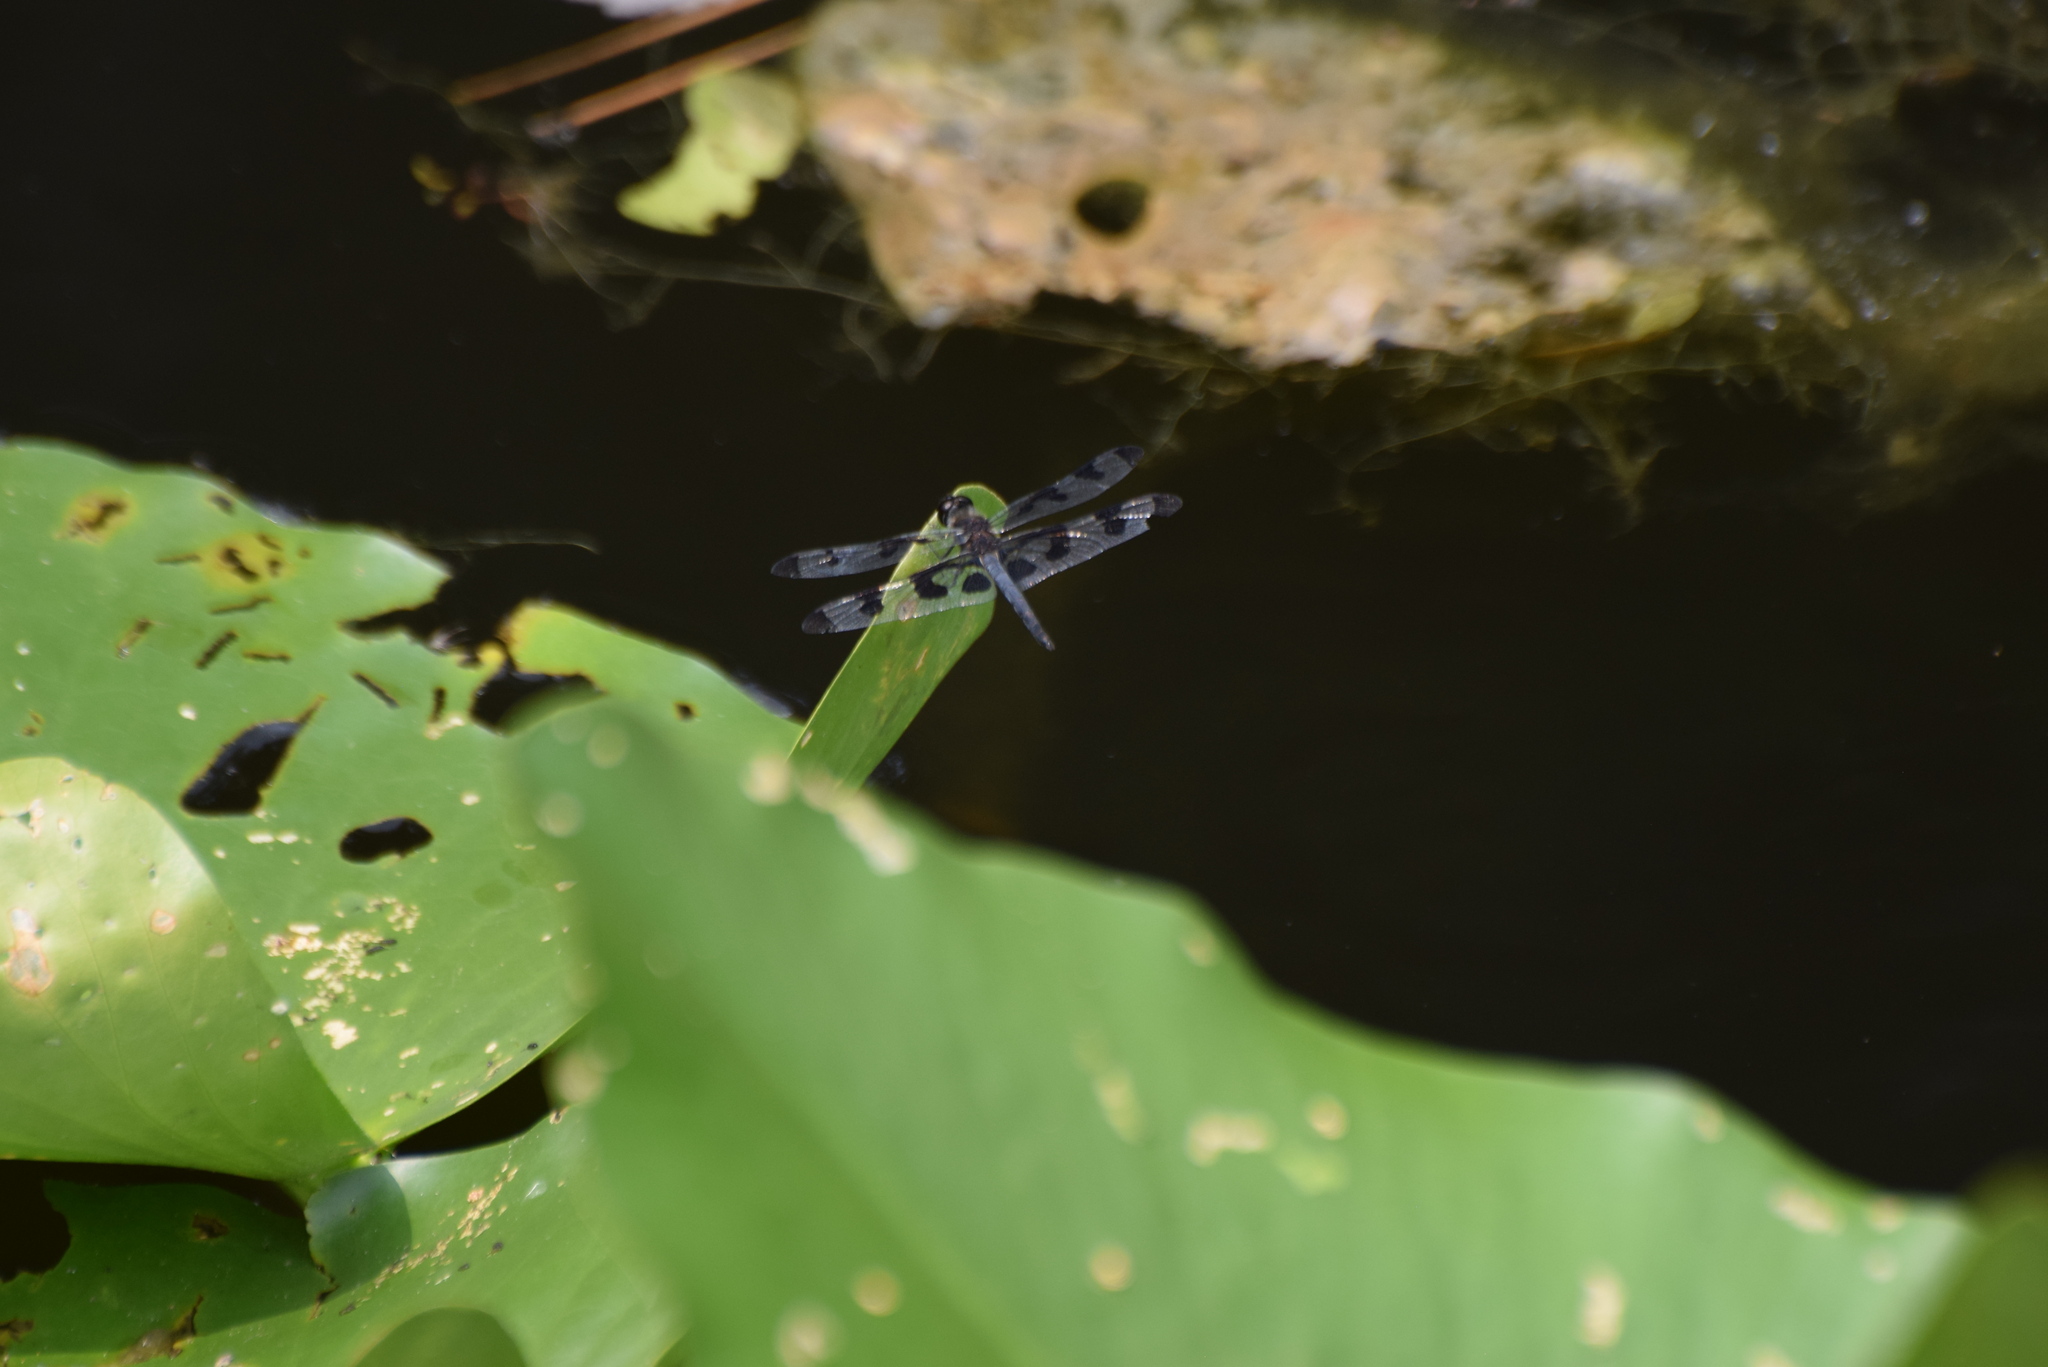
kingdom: Animalia
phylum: Arthropoda
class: Insecta
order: Odonata
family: Libellulidae
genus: Celithemis
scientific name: Celithemis fasciata
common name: Banded pennant
